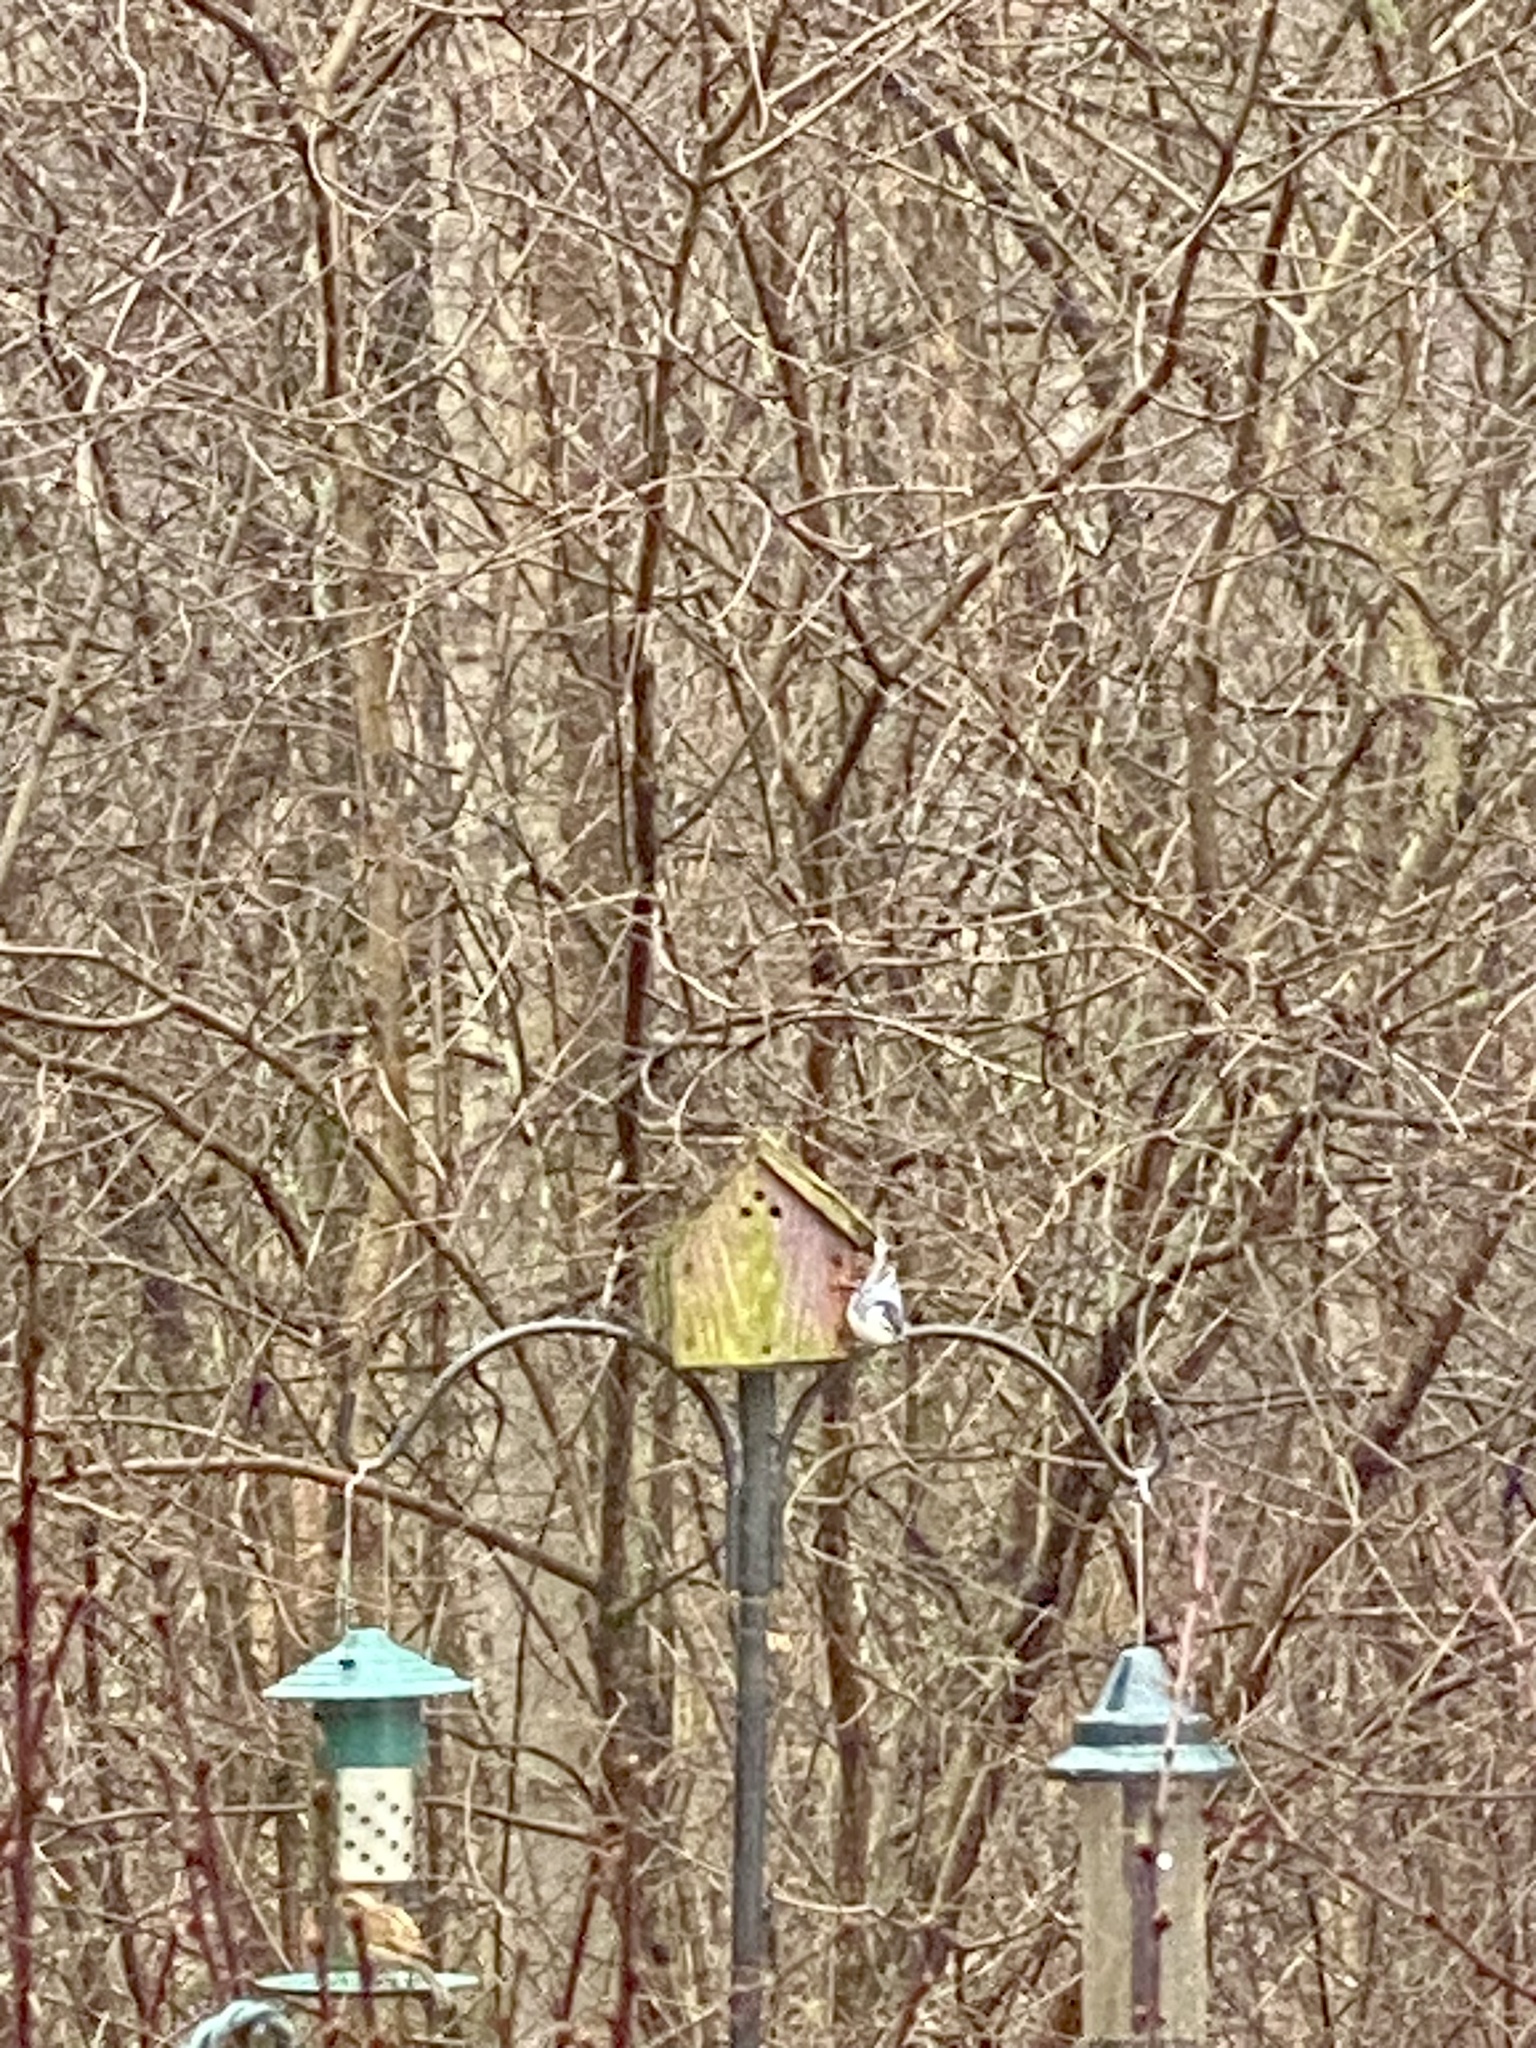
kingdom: Animalia
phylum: Chordata
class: Aves
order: Passeriformes
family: Sittidae
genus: Sitta
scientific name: Sitta carolinensis
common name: White-breasted nuthatch
